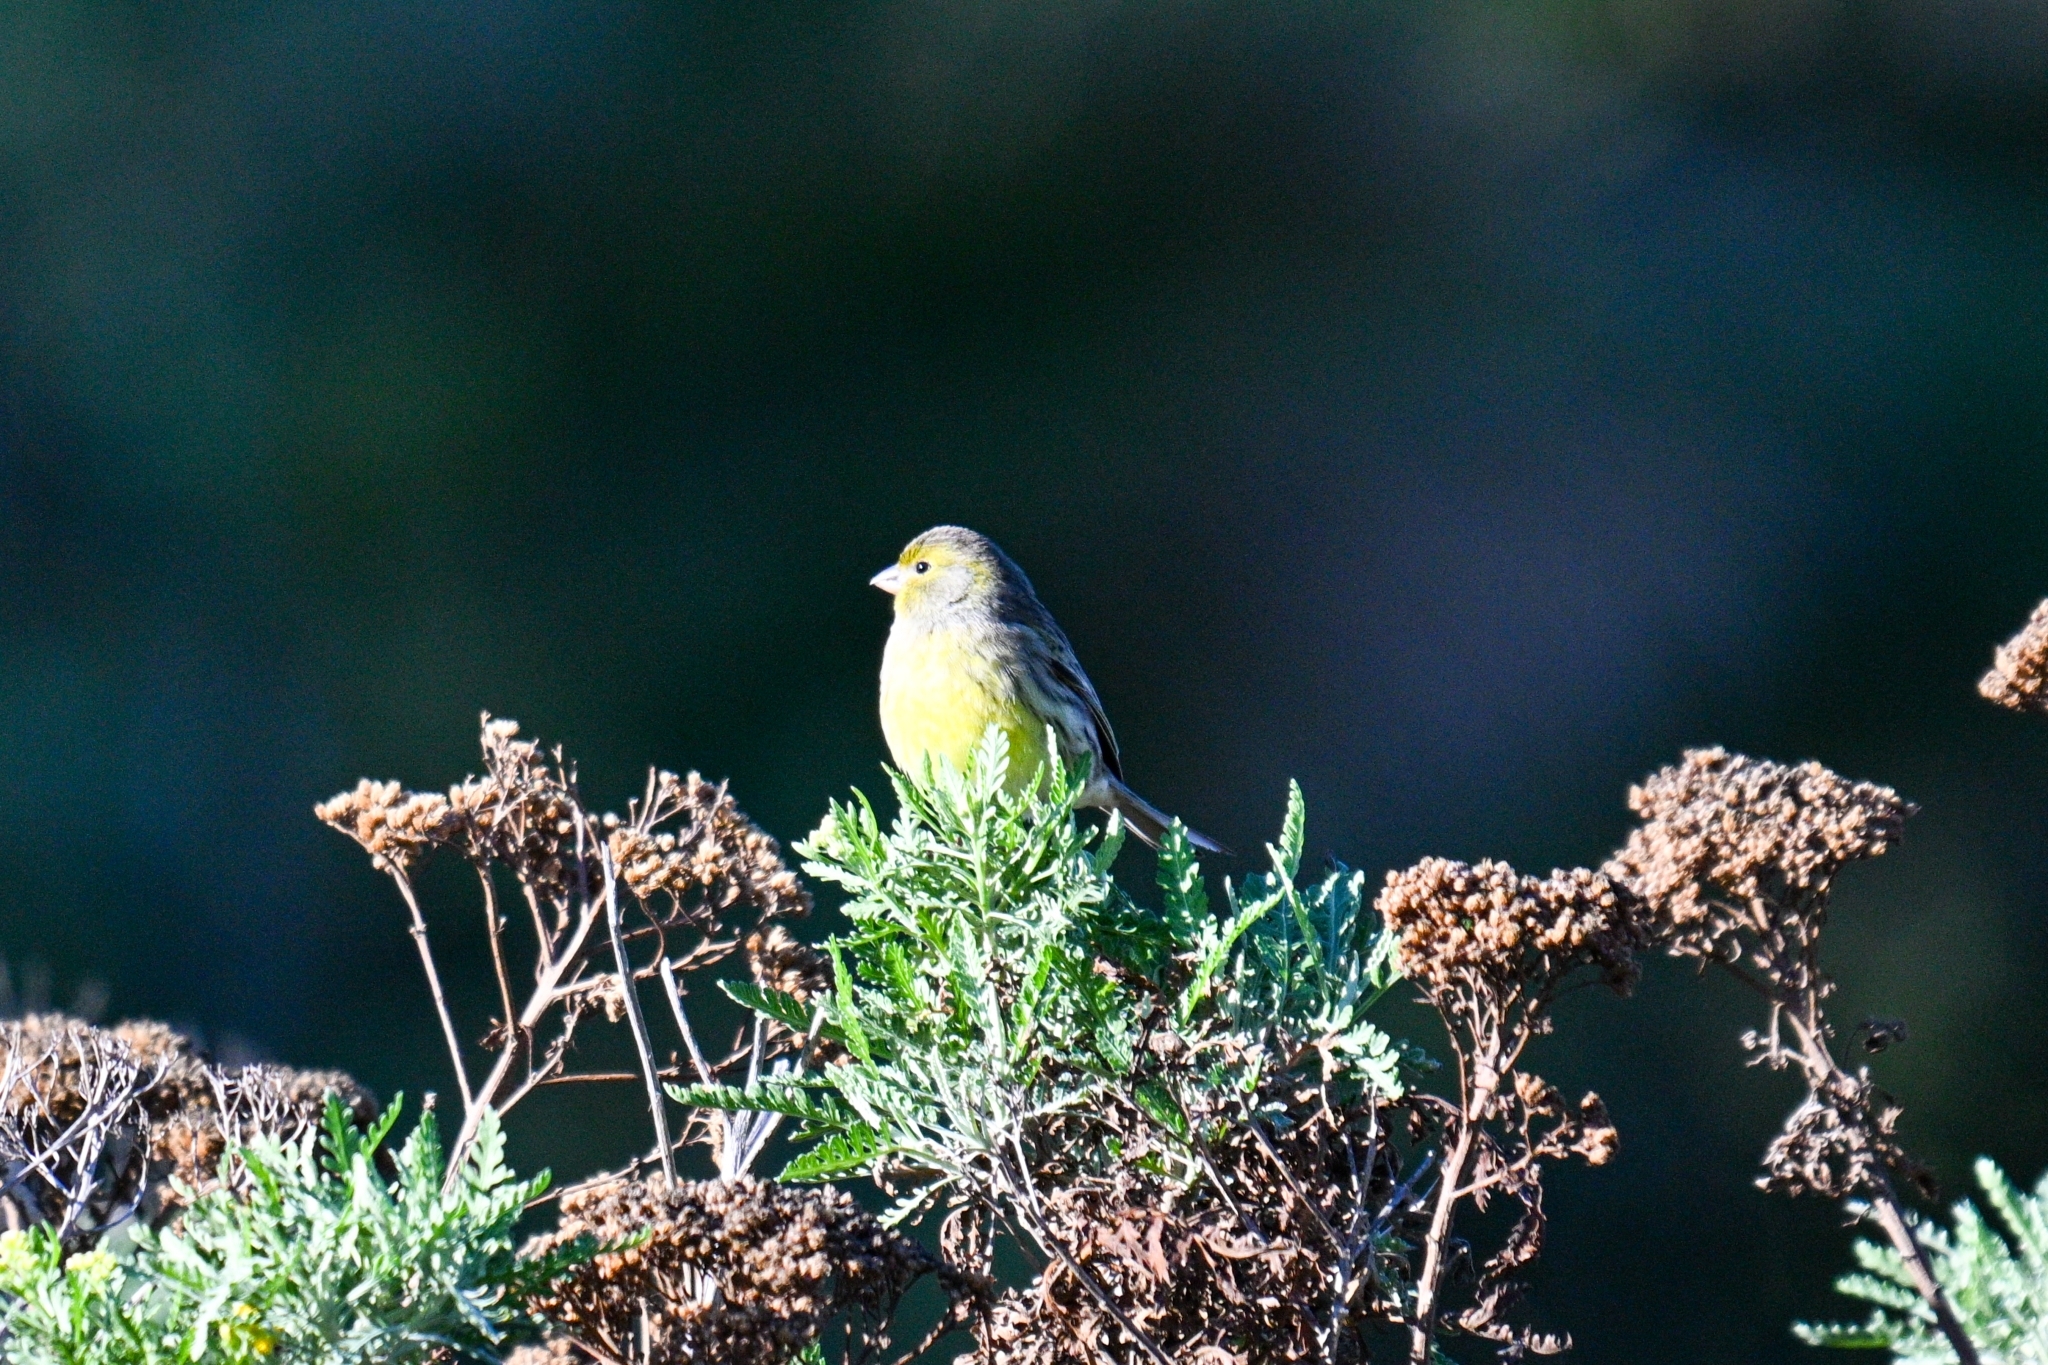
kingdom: Animalia
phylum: Chordata
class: Aves
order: Passeriformes
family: Fringillidae
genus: Serinus
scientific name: Serinus canaria
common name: Atlantic canary
